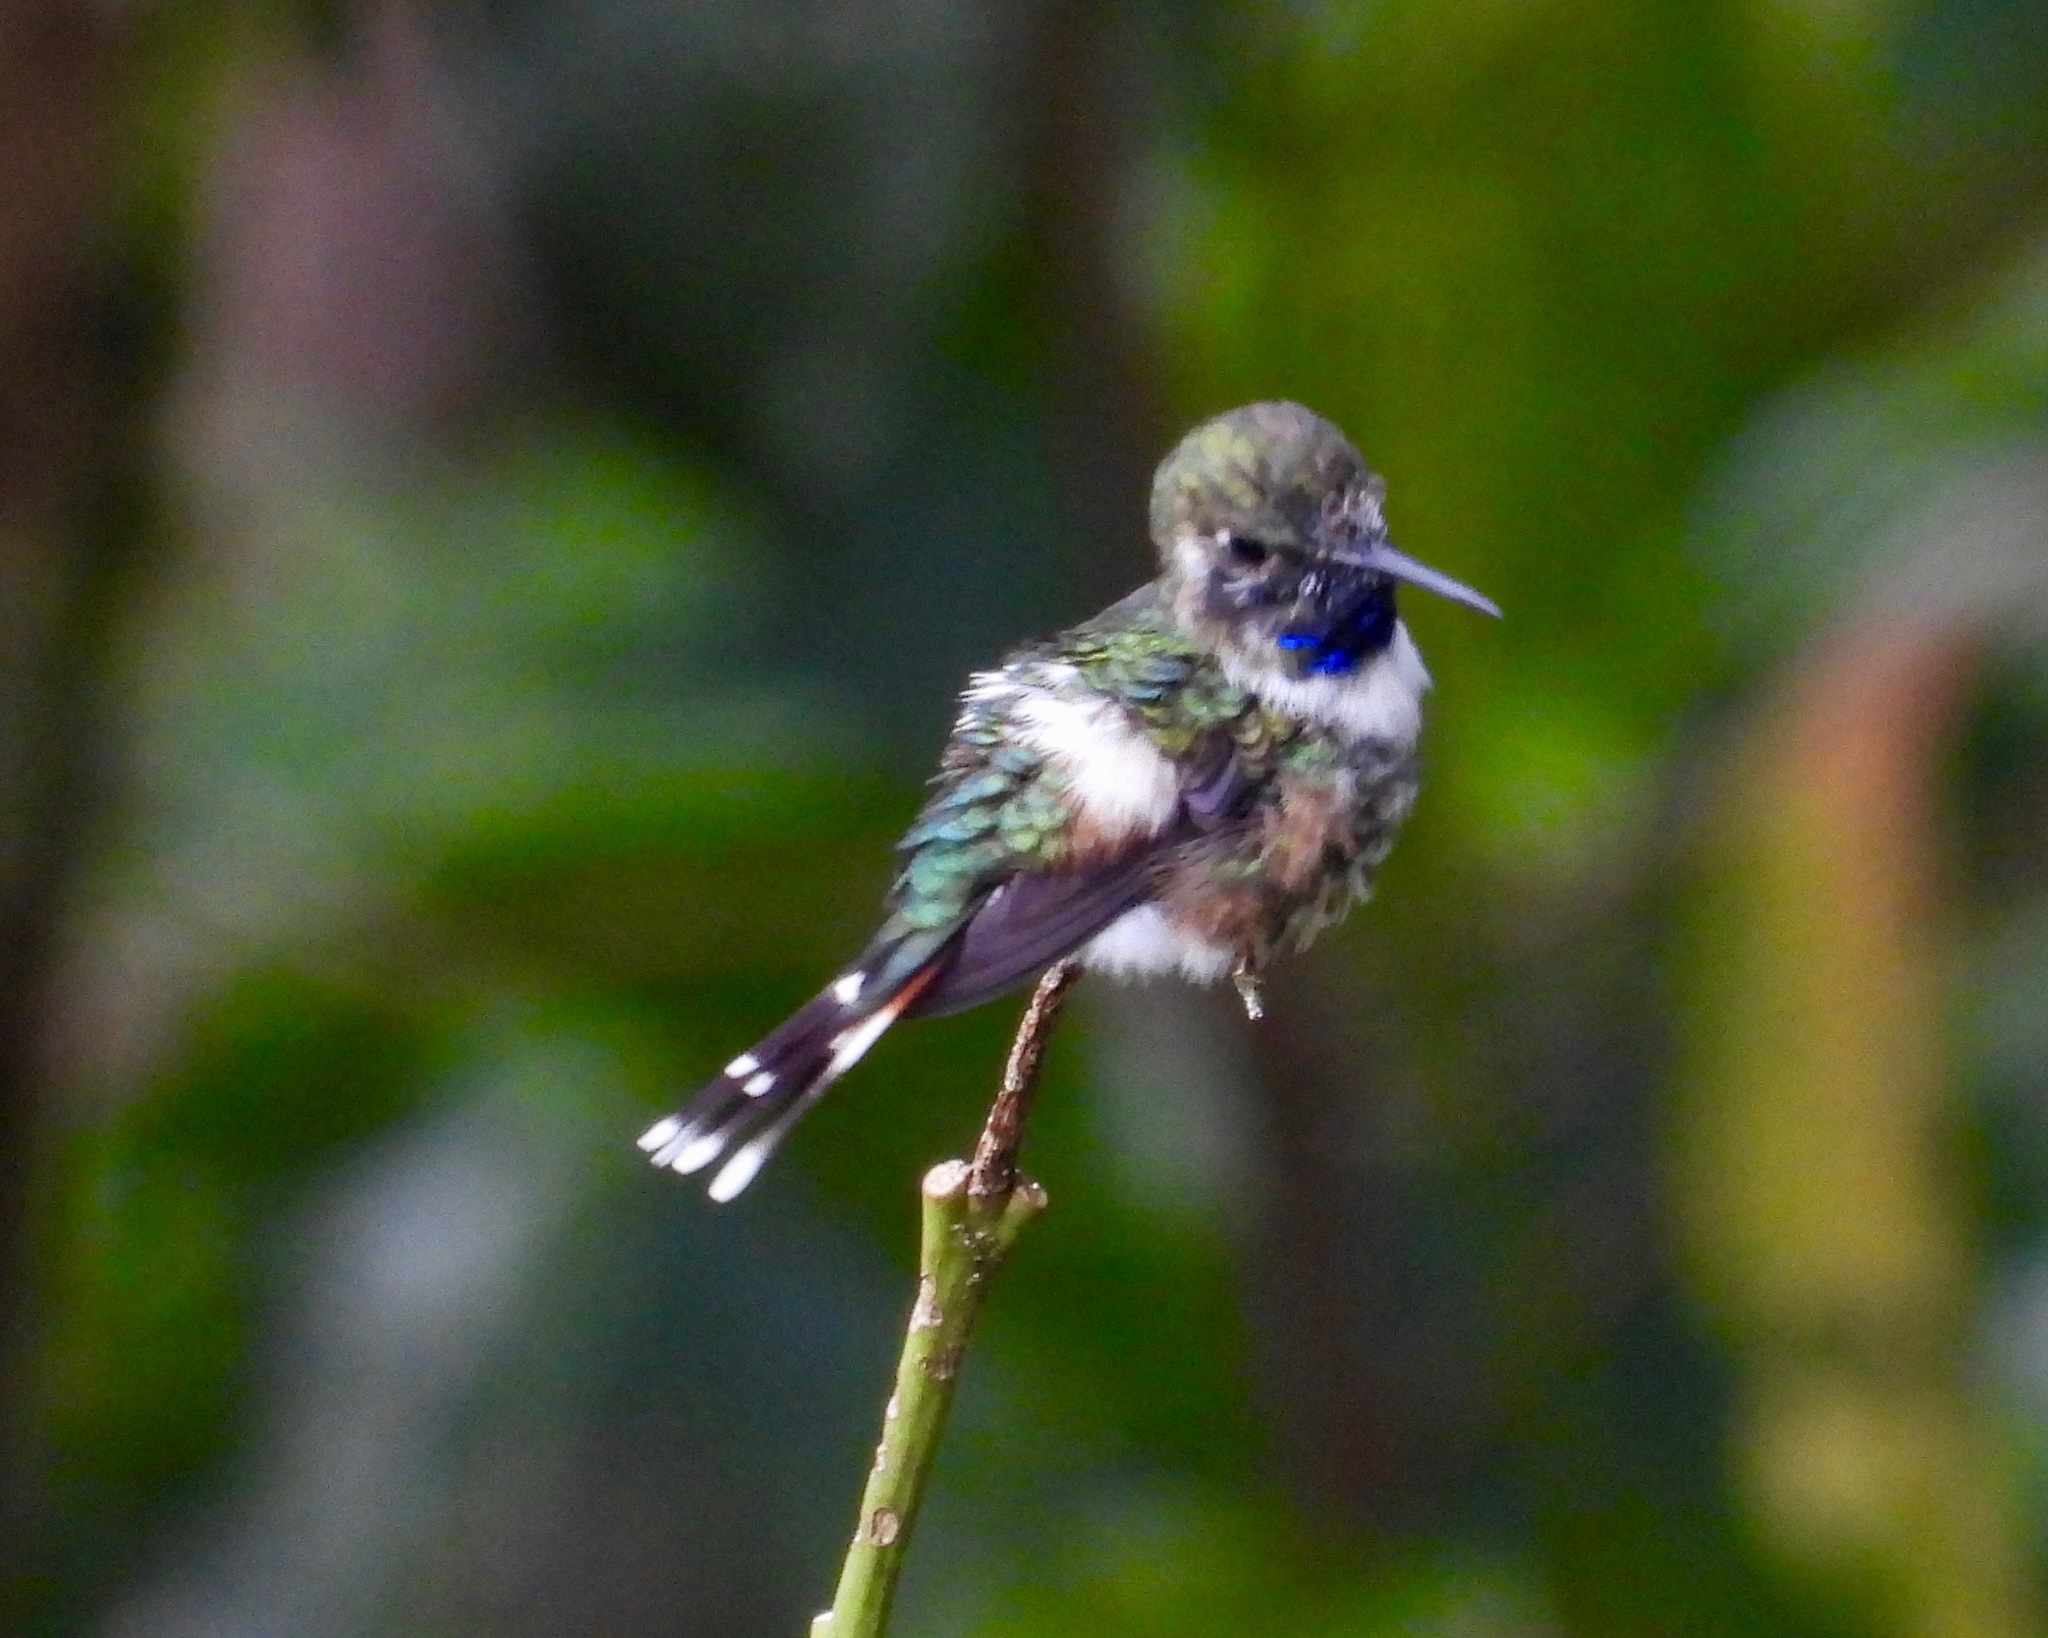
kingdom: Animalia
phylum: Chordata
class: Aves
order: Apodiformes
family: Trochilidae
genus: Tilmatura
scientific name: Tilmatura dupontii
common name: Sparkling-tailed woodstar
